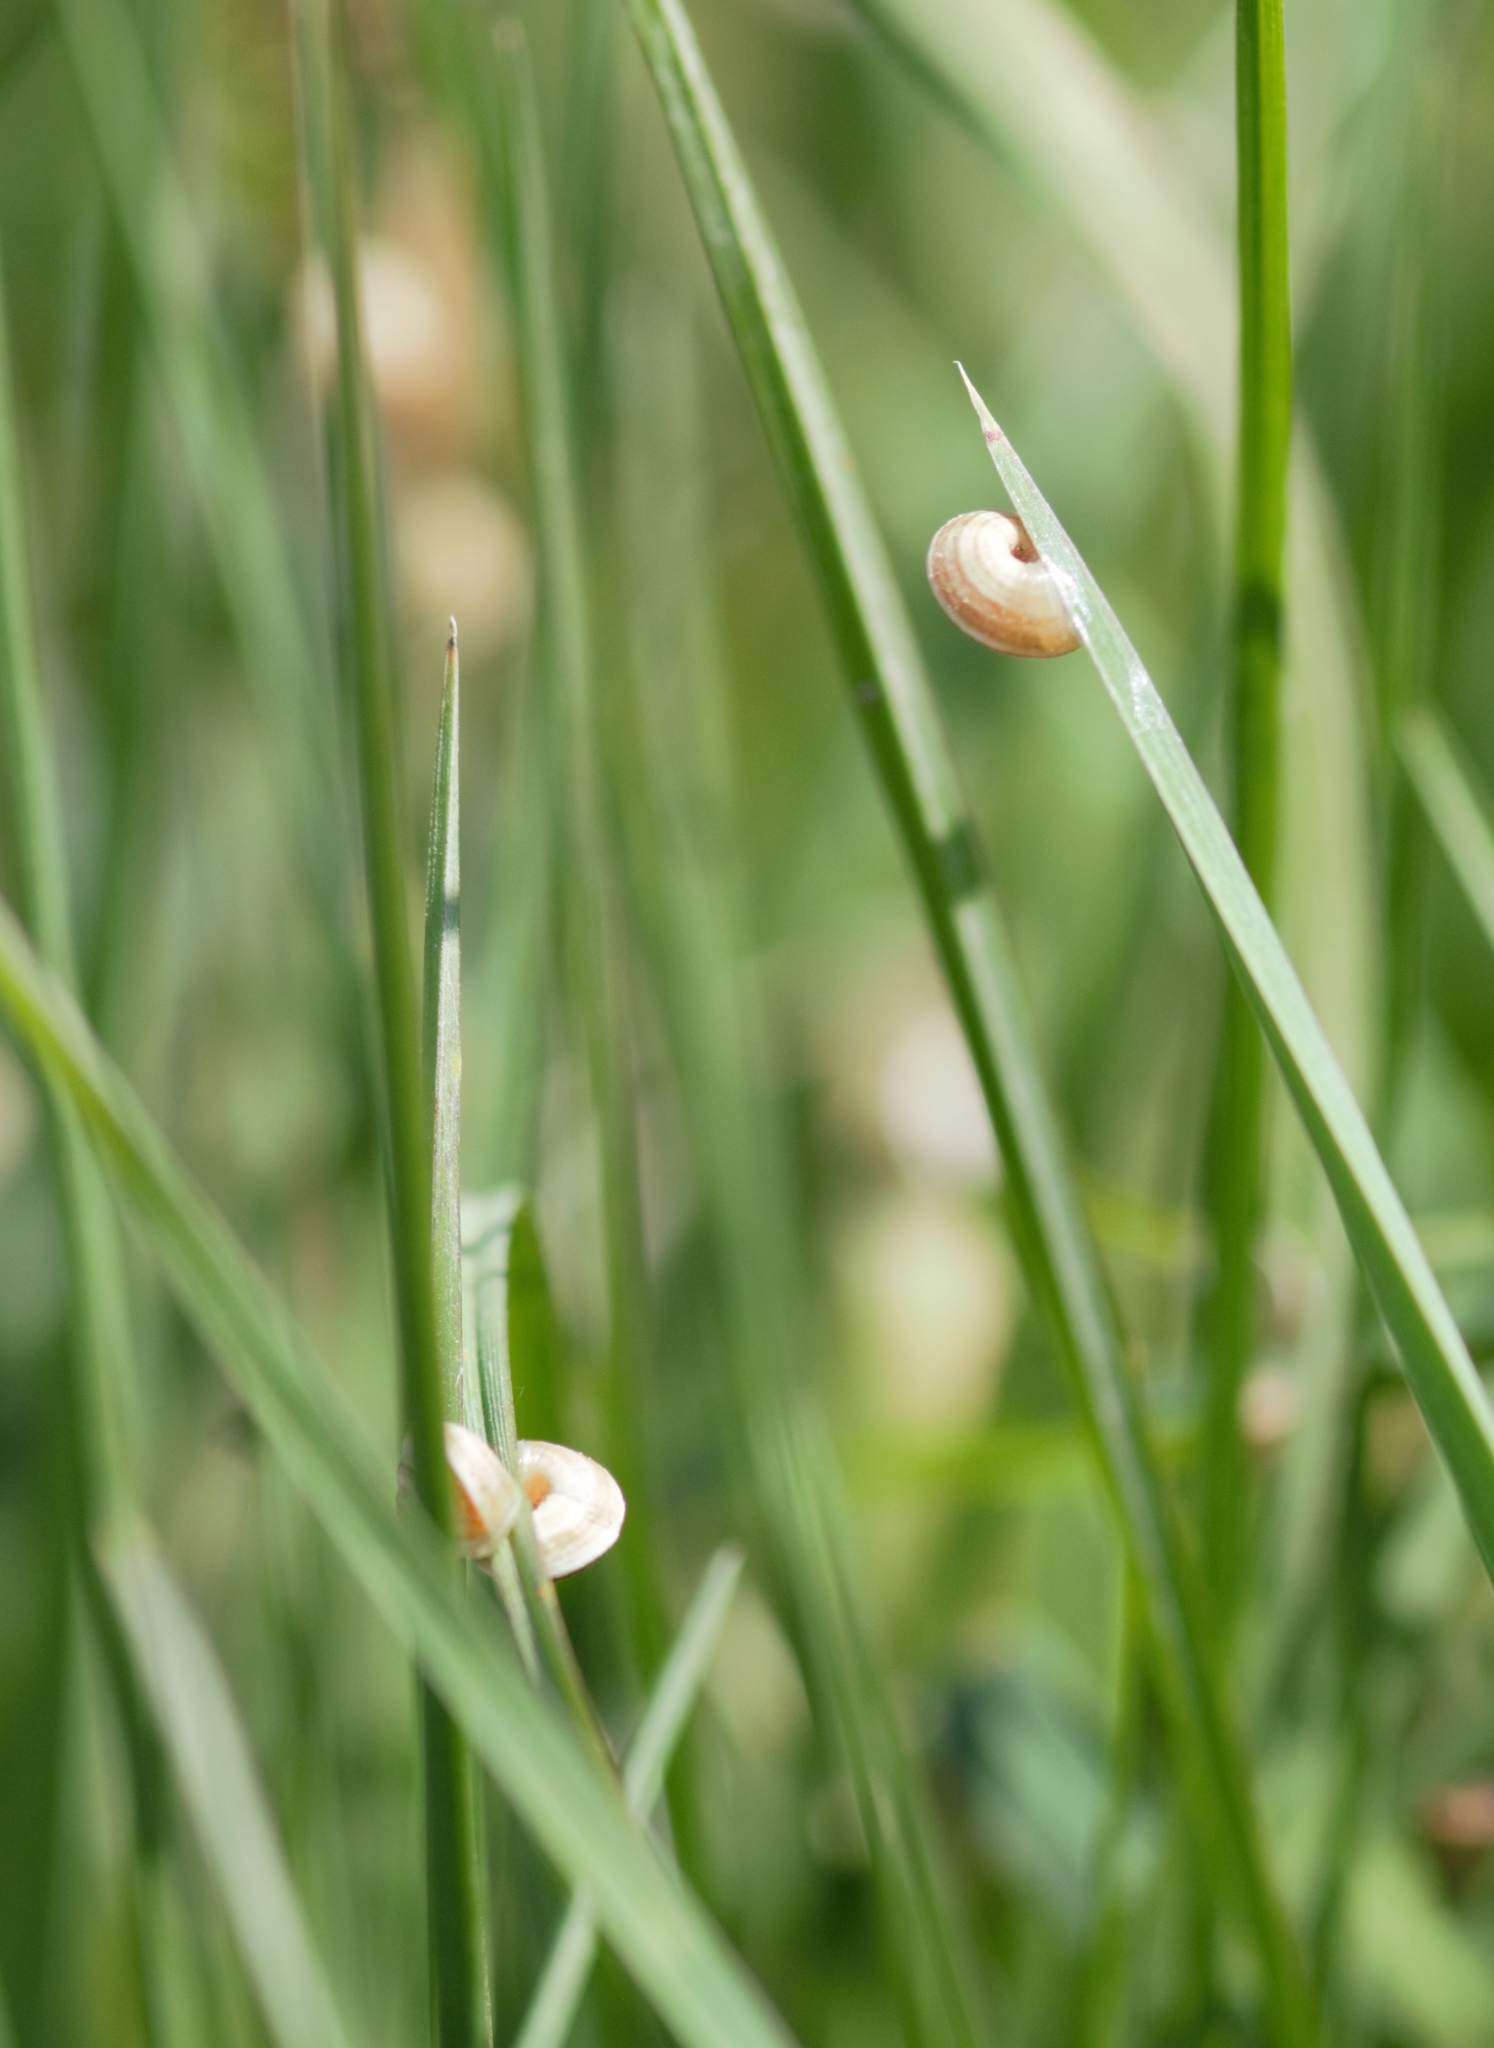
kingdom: Animalia
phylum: Mollusca
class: Gastropoda
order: Stylommatophora
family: Geomitridae
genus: Cernuella
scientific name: Cernuella virgata
